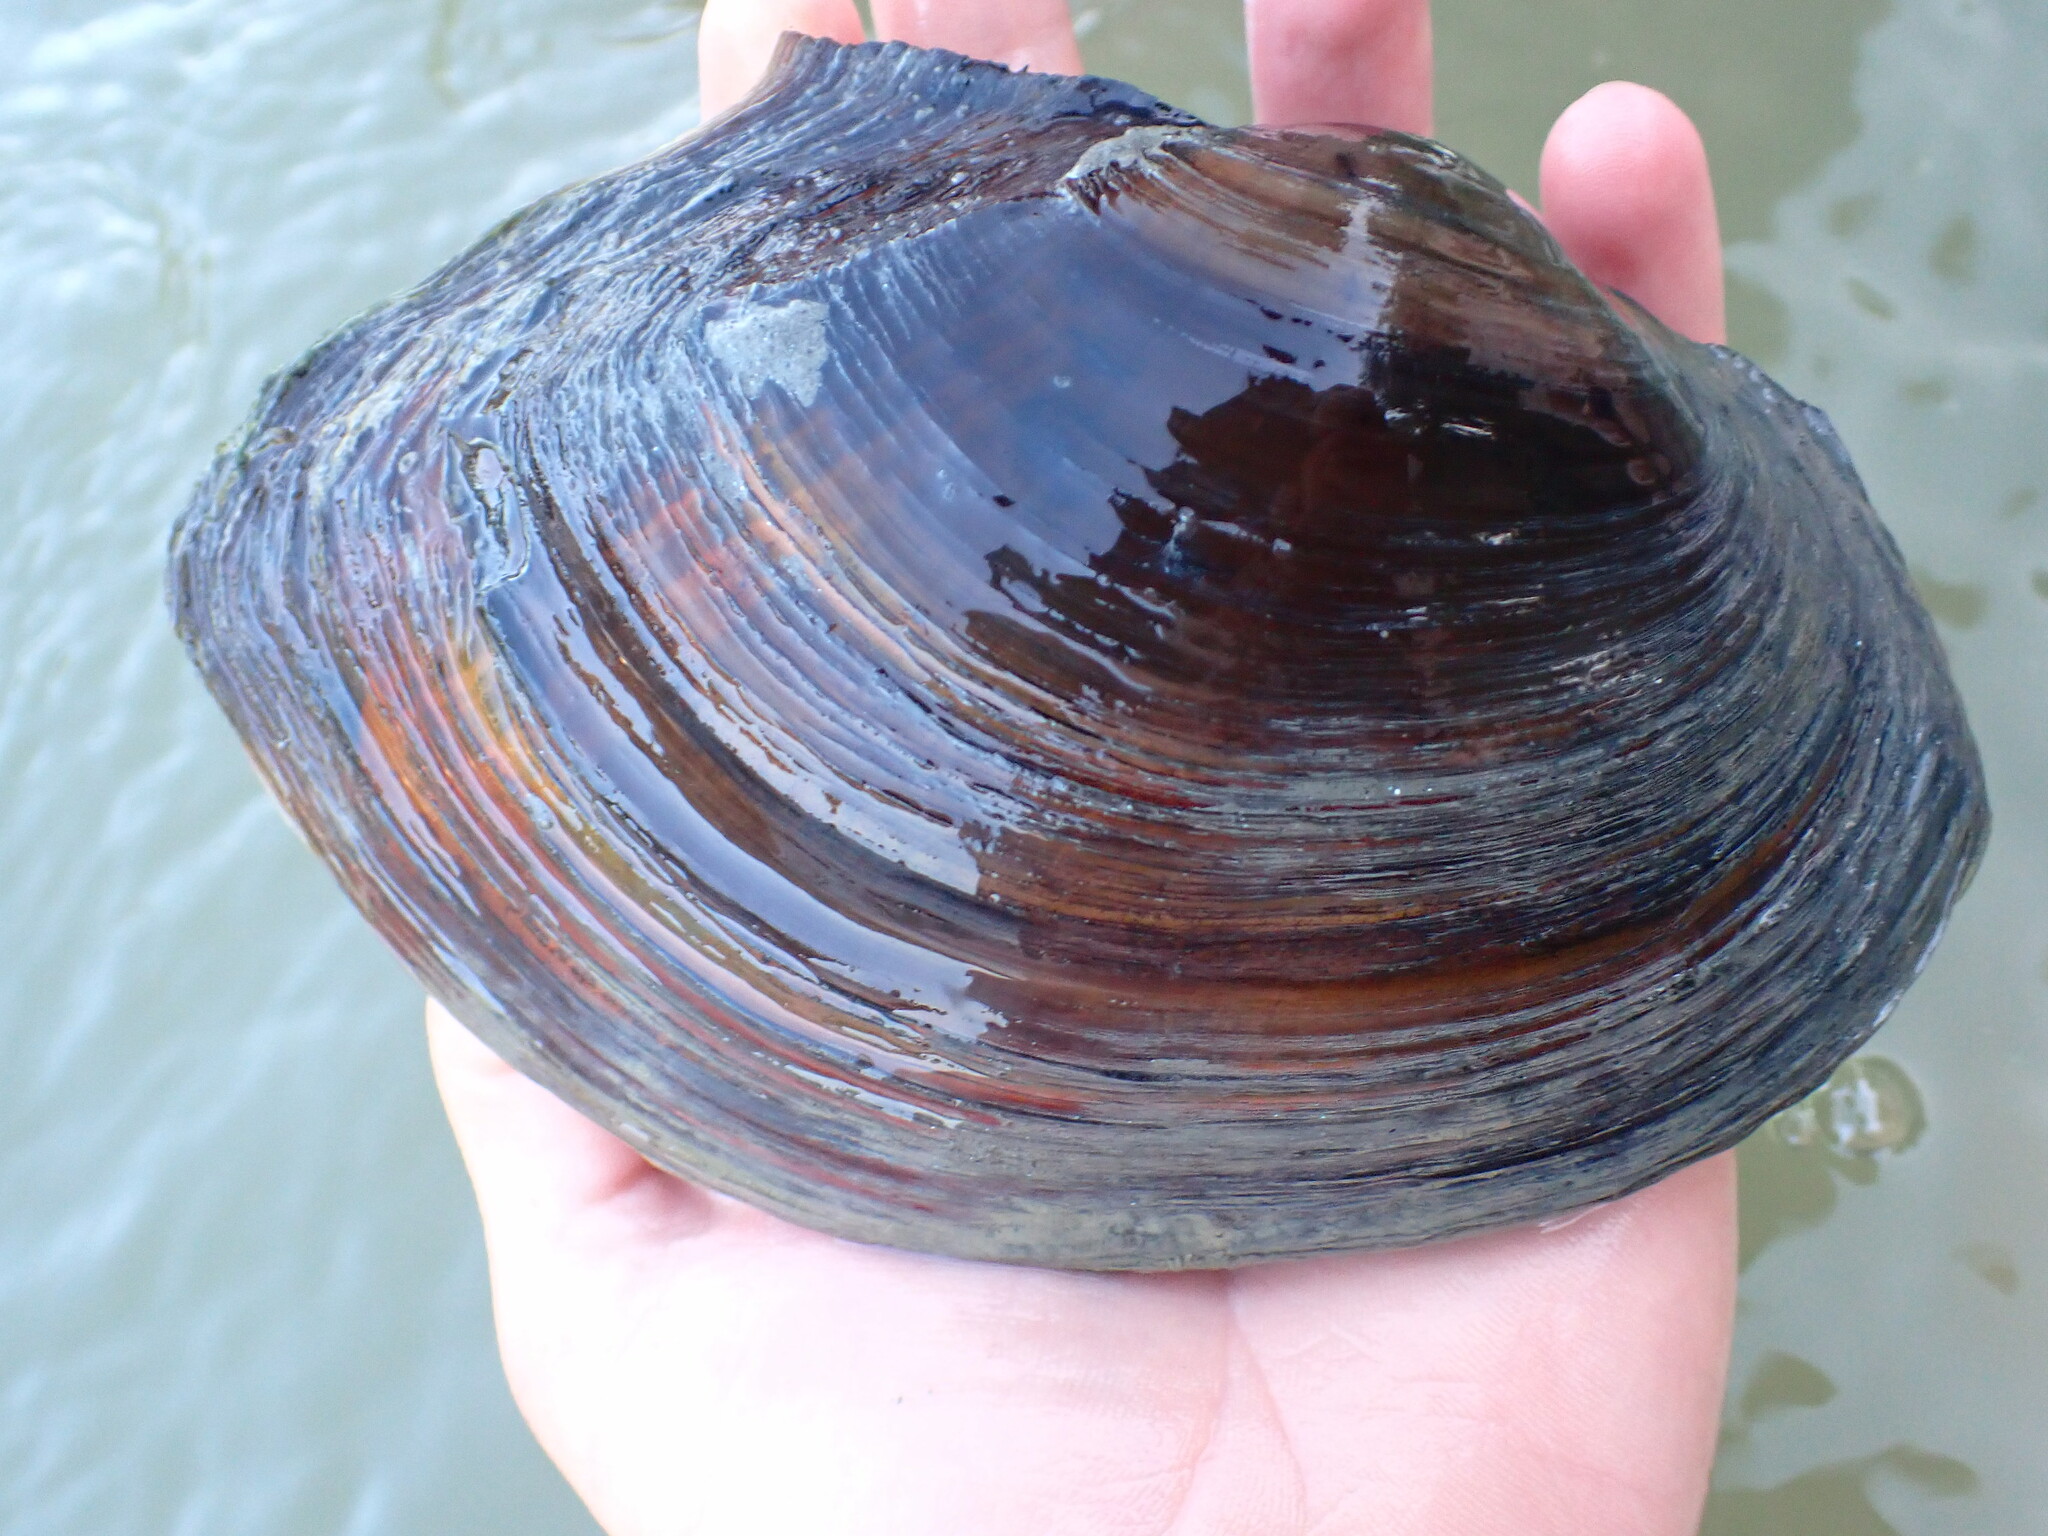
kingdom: Animalia
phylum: Mollusca
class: Bivalvia
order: Unionida
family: Unionidae
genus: Sinanodonta
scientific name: Sinanodonta woodiana
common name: Chinese pond mussel
